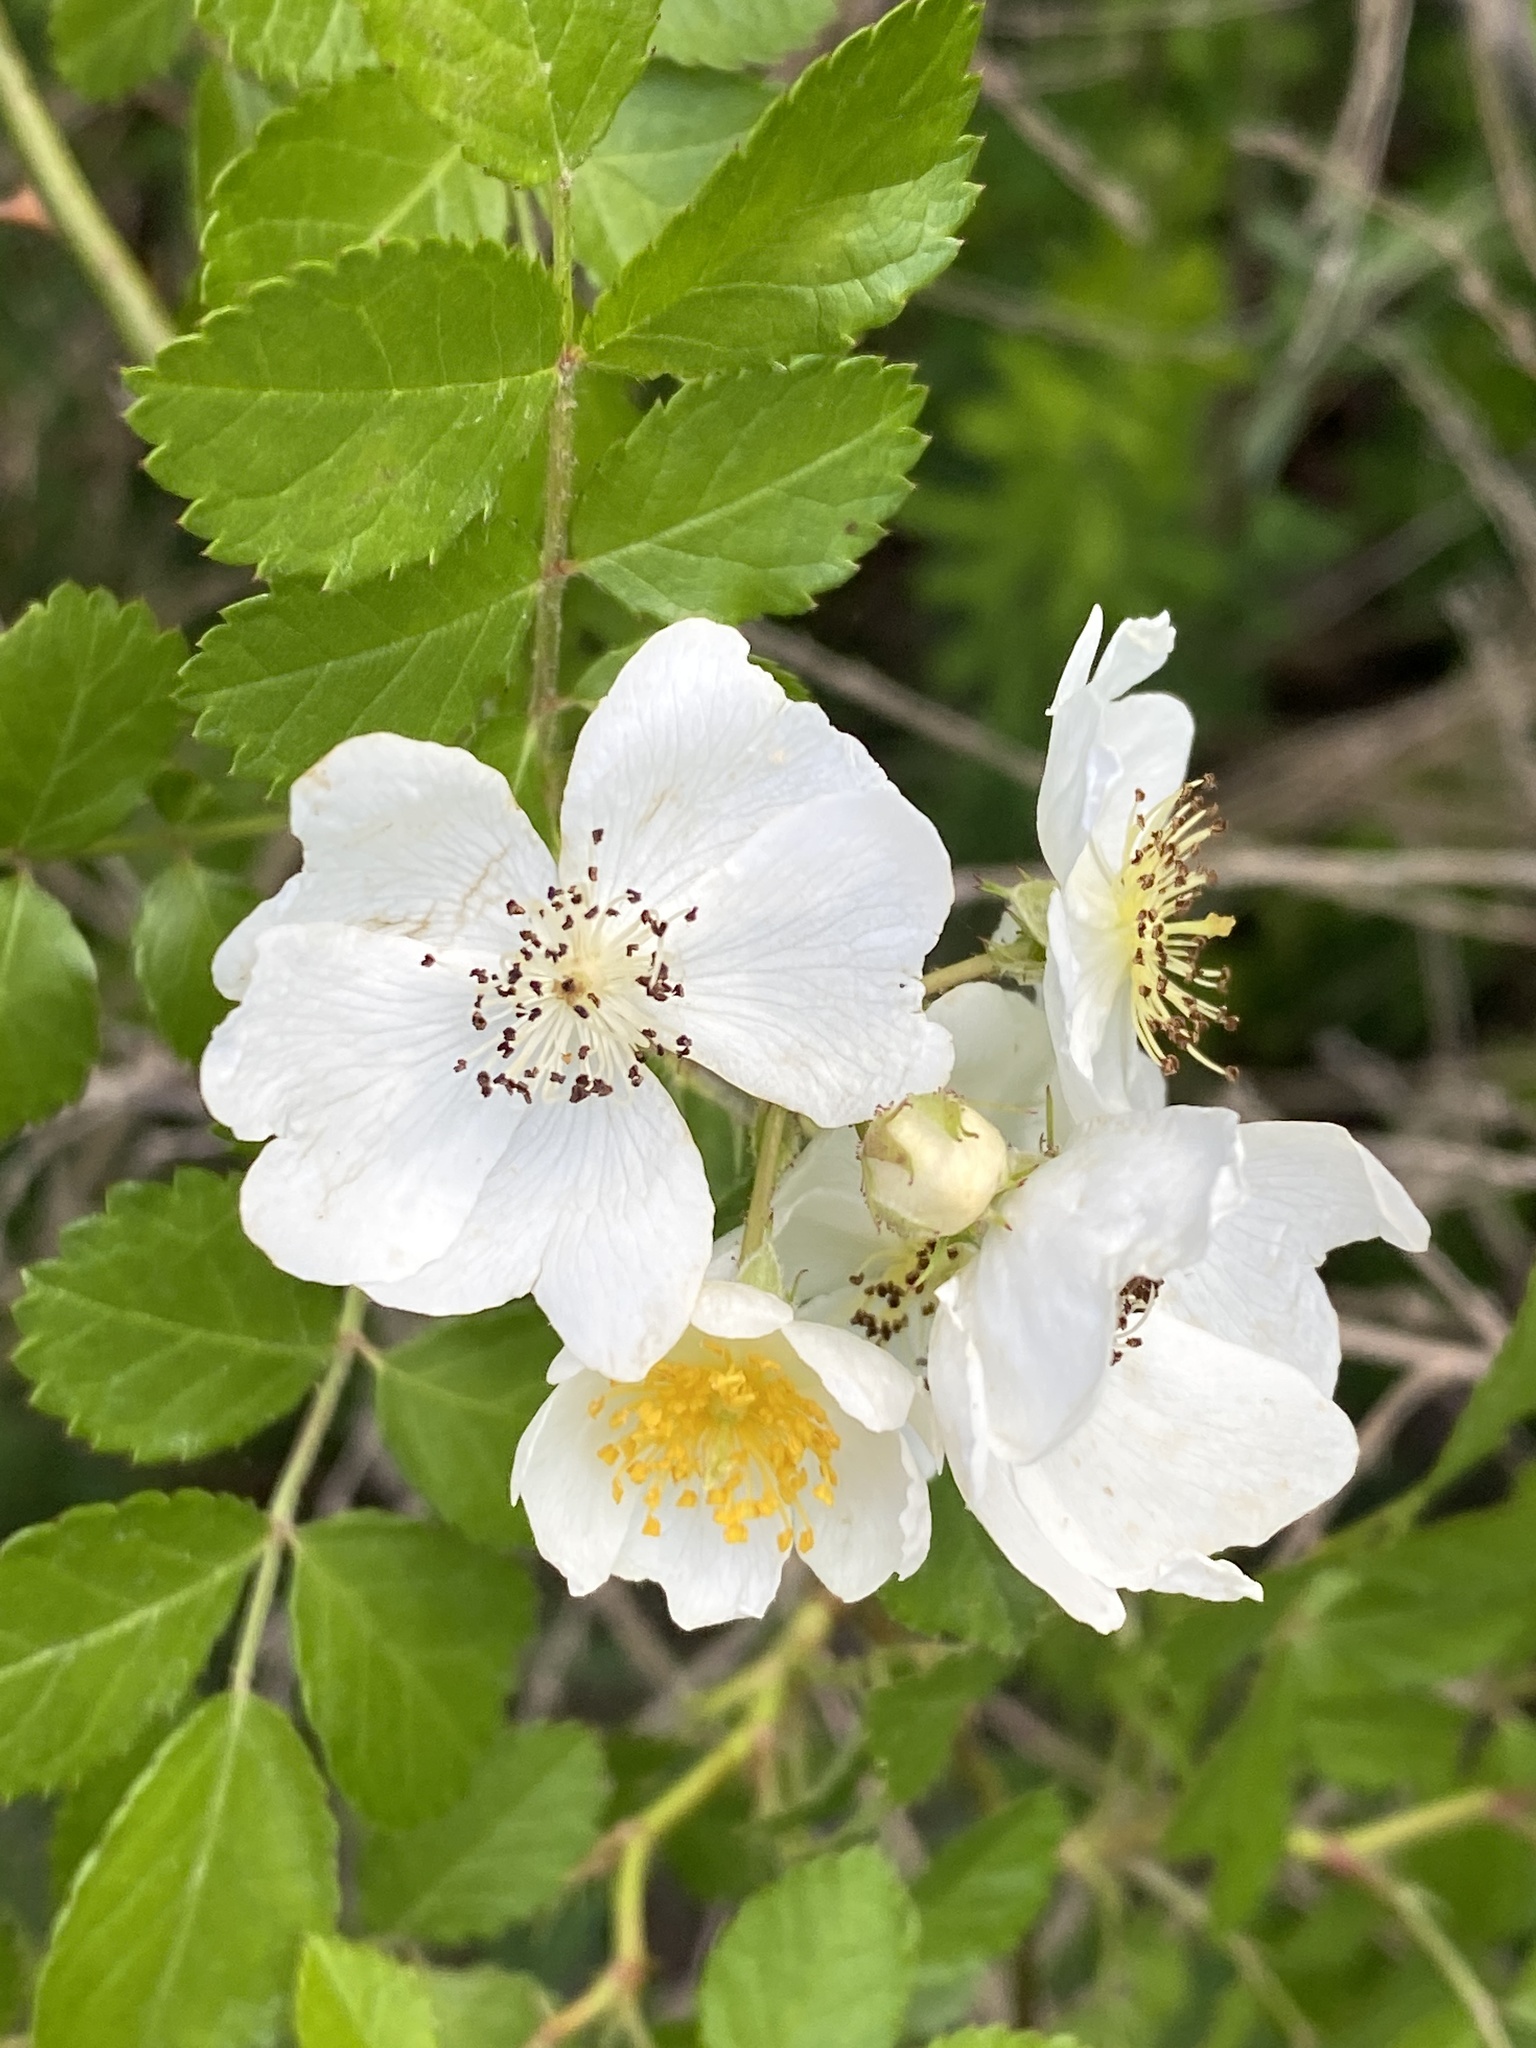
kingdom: Plantae
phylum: Tracheophyta
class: Magnoliopsida
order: Rosales
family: Rosaceae
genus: Rosa
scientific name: Rosa multiflora
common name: Multiflora rose
